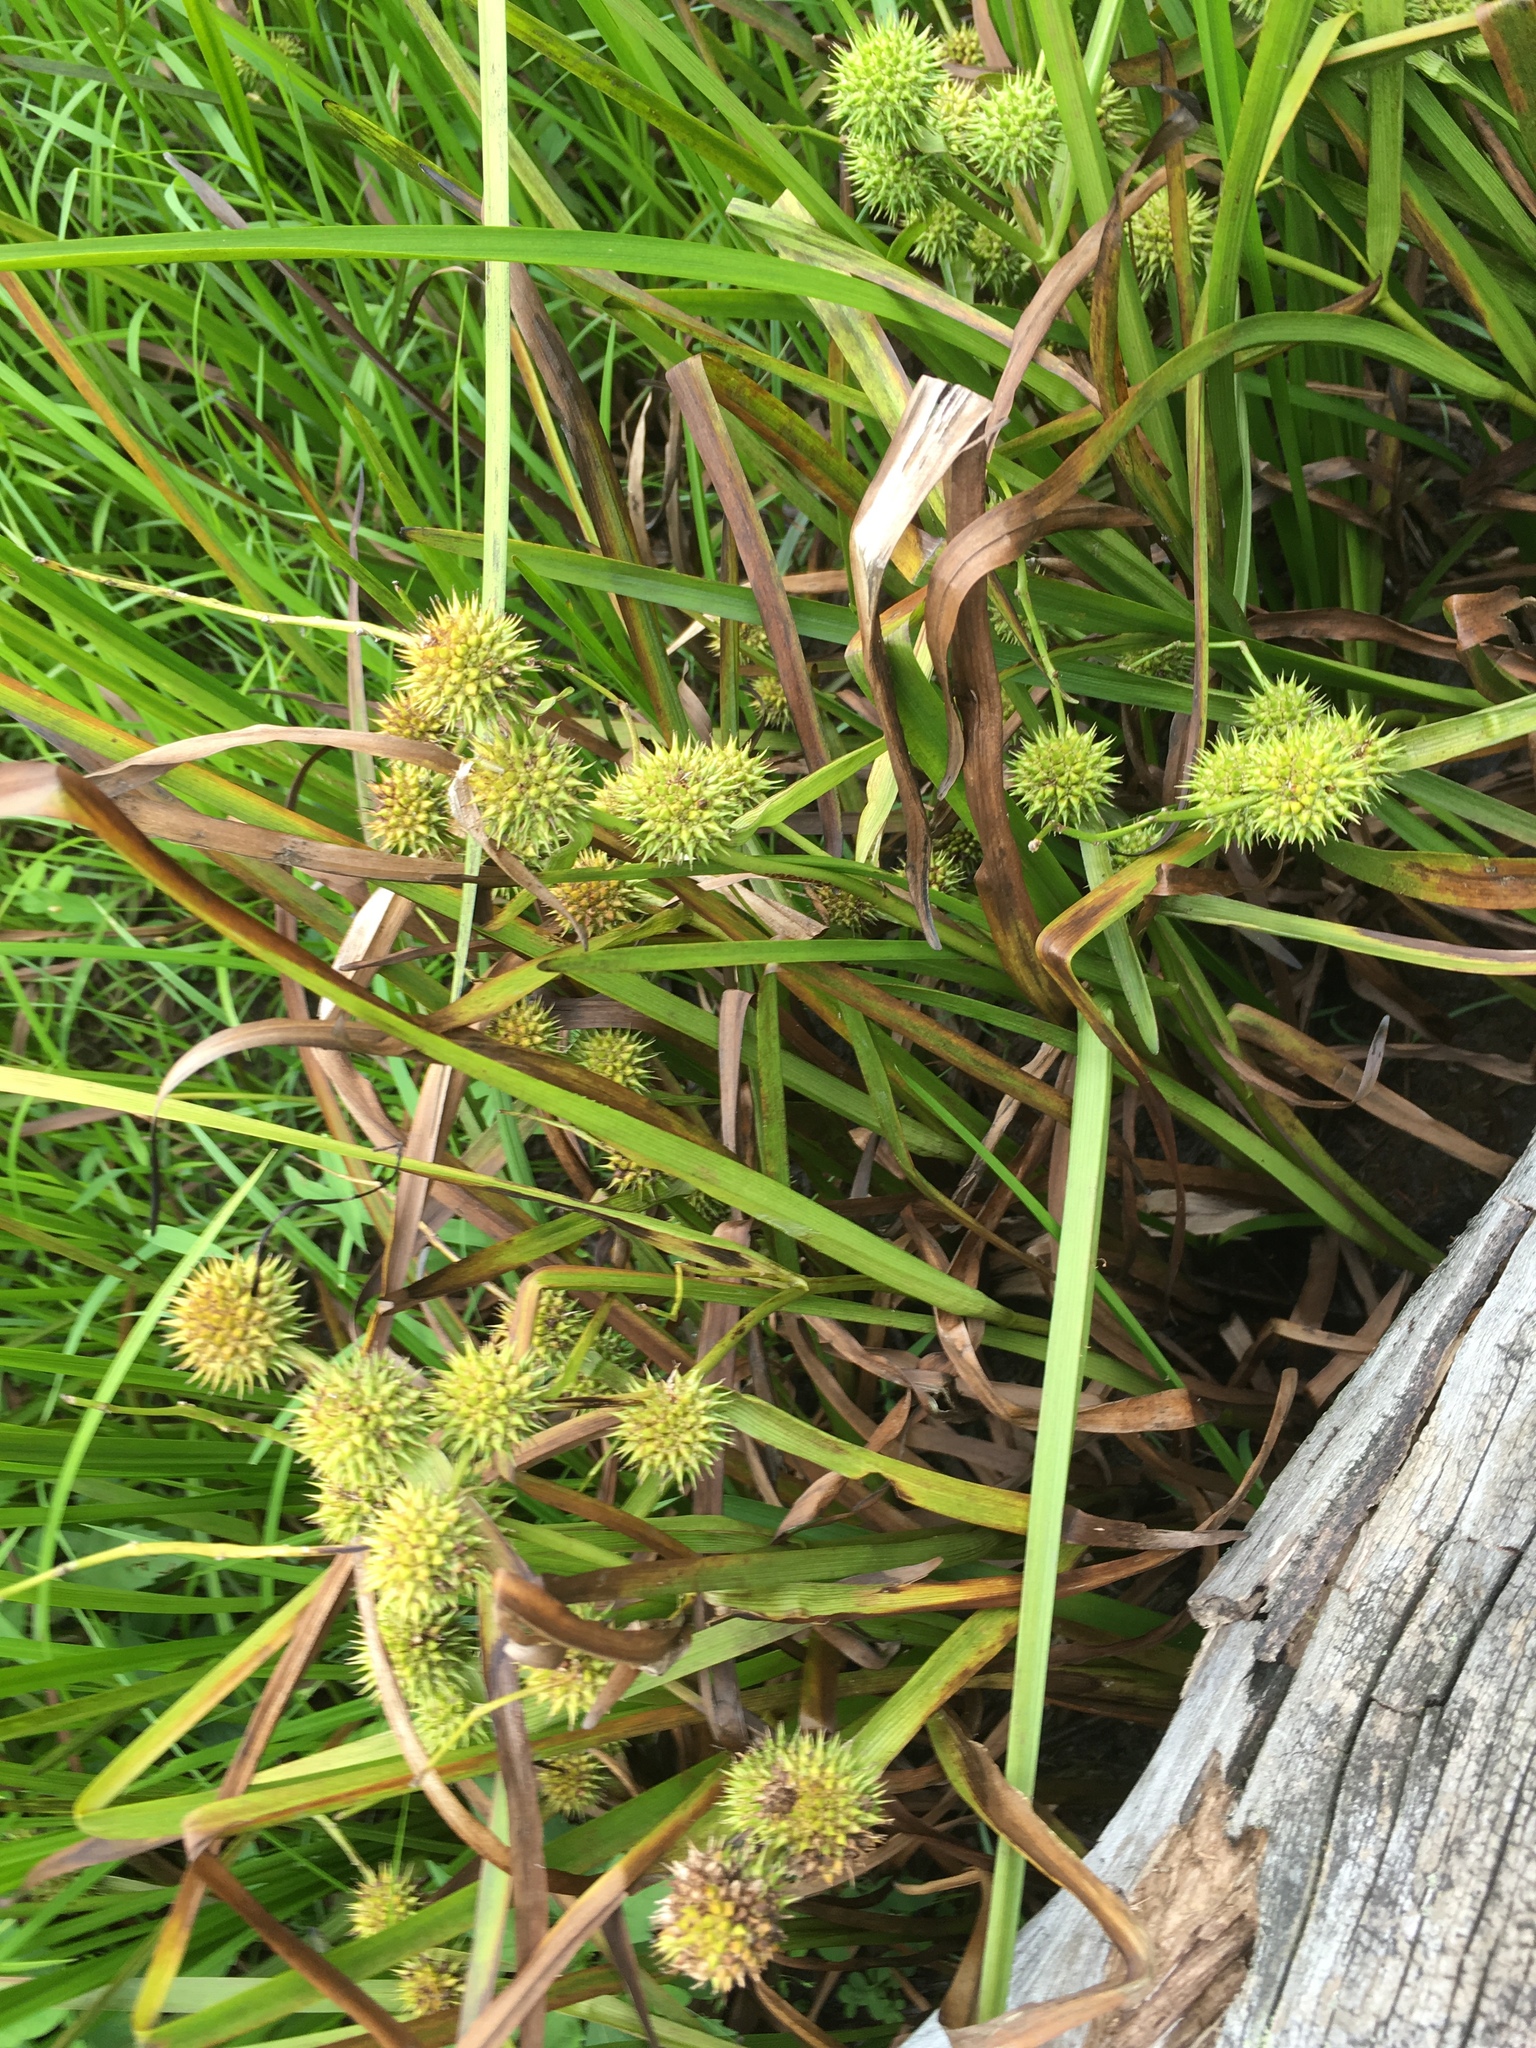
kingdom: Plantae
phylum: Tracheophyta
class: Liliopsida
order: Poales
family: Typhaceae
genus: Sparganium
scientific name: Sparganium americanum
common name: American burreed
